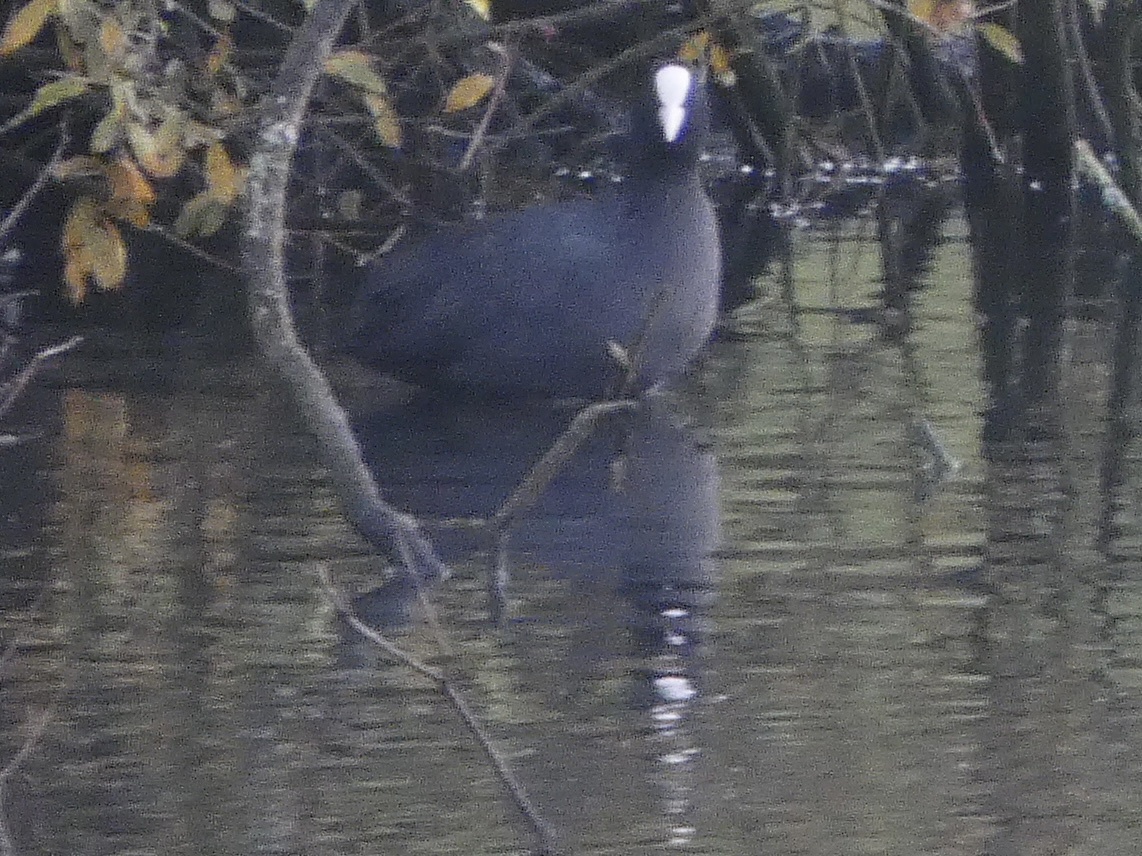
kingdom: Animalia
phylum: Chordata
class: Aves
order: Gruiformes
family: Rallidae
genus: Fulica
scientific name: Fulica atra
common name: Eurasian coot
